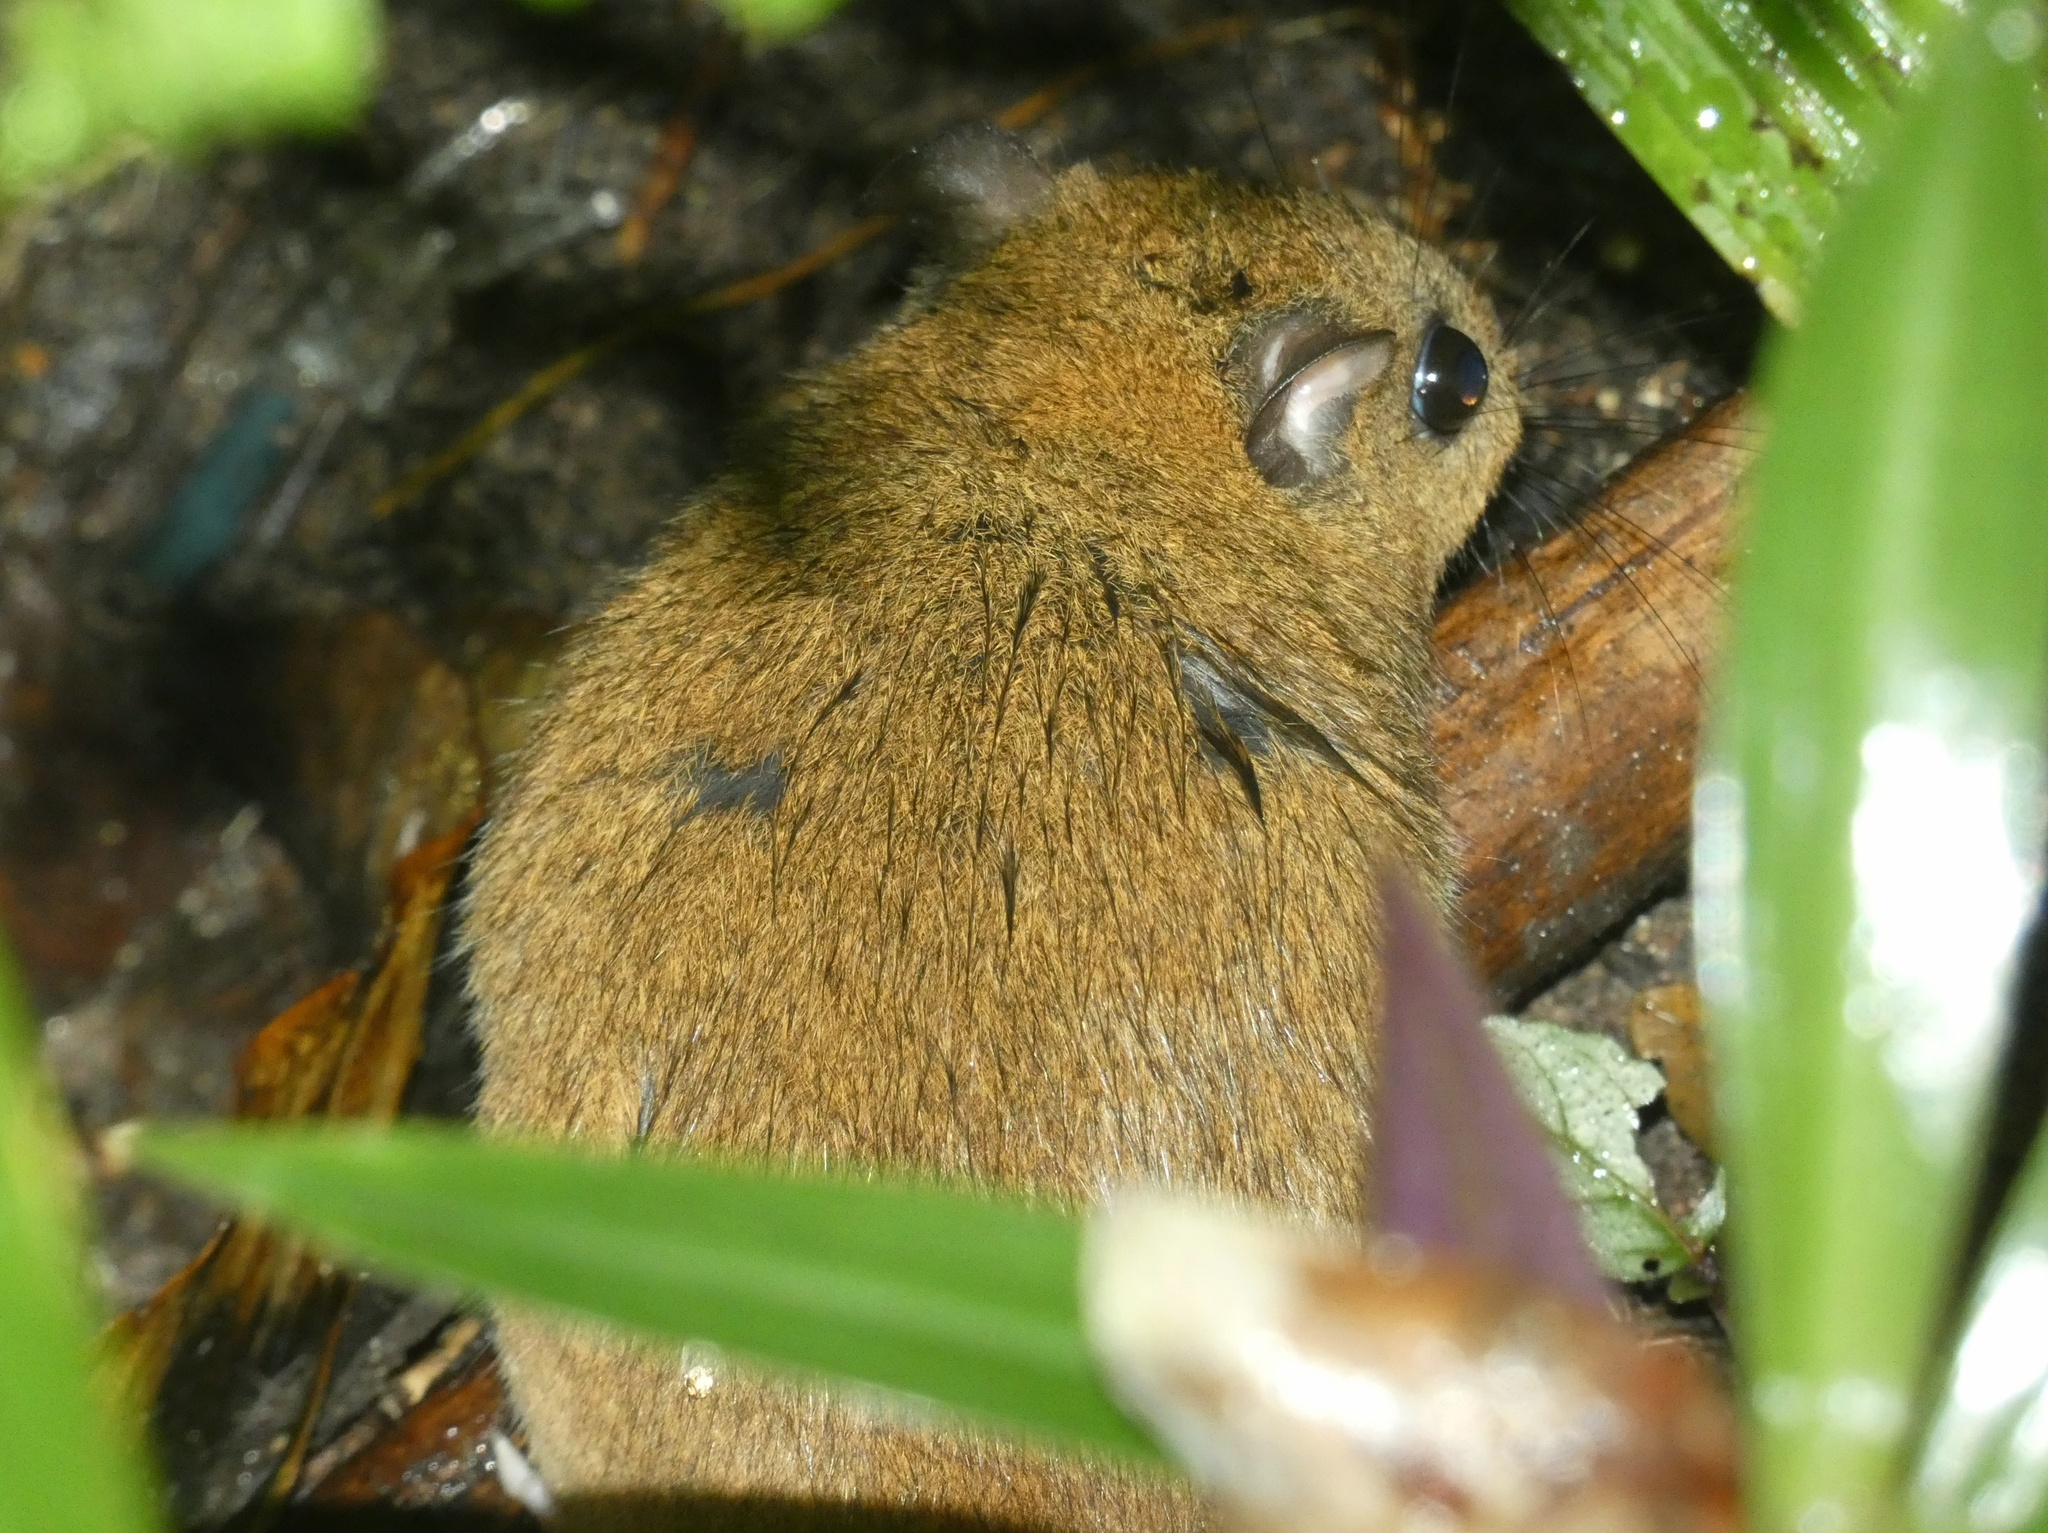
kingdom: Animalia
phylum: Chordata
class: Mammalia
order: Rodentia
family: Muridae
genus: Melomys
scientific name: Melomys cervinipes
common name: Fawn-footed melomys
